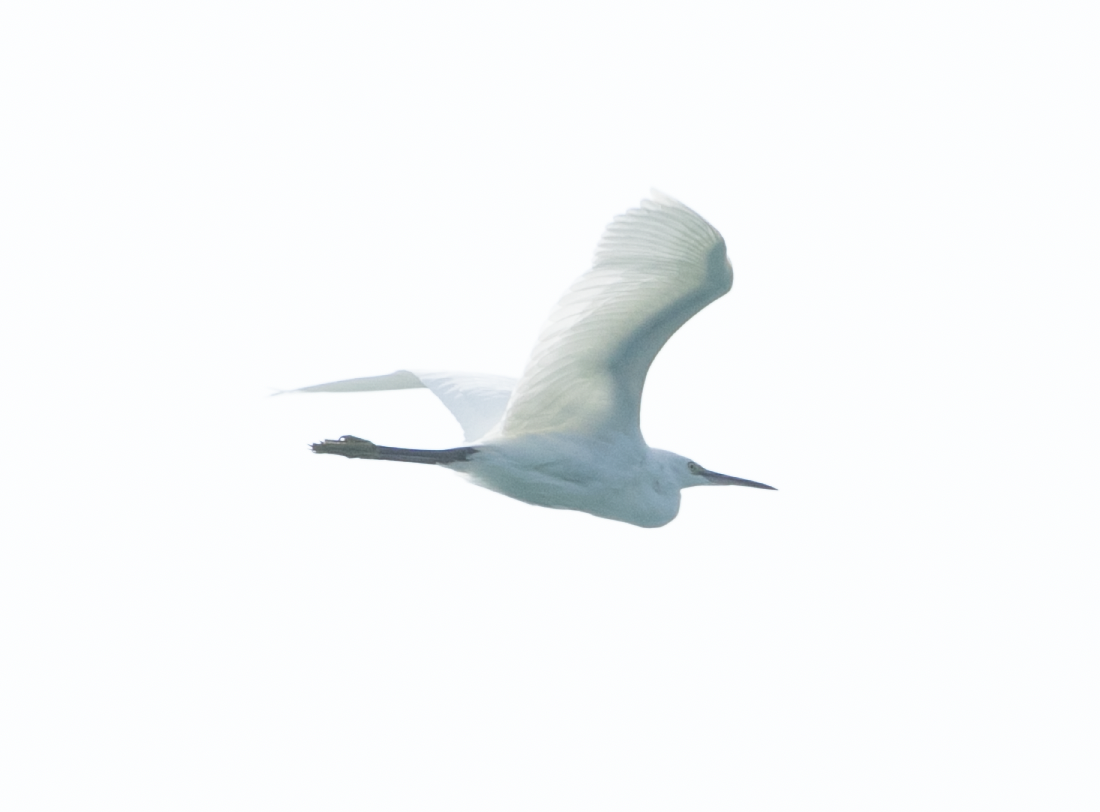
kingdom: Animalia
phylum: Chordata
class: Aves
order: Pelecaniformes
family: Ardeidae
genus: Egretta
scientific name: Egretta garzetta
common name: Little egret
